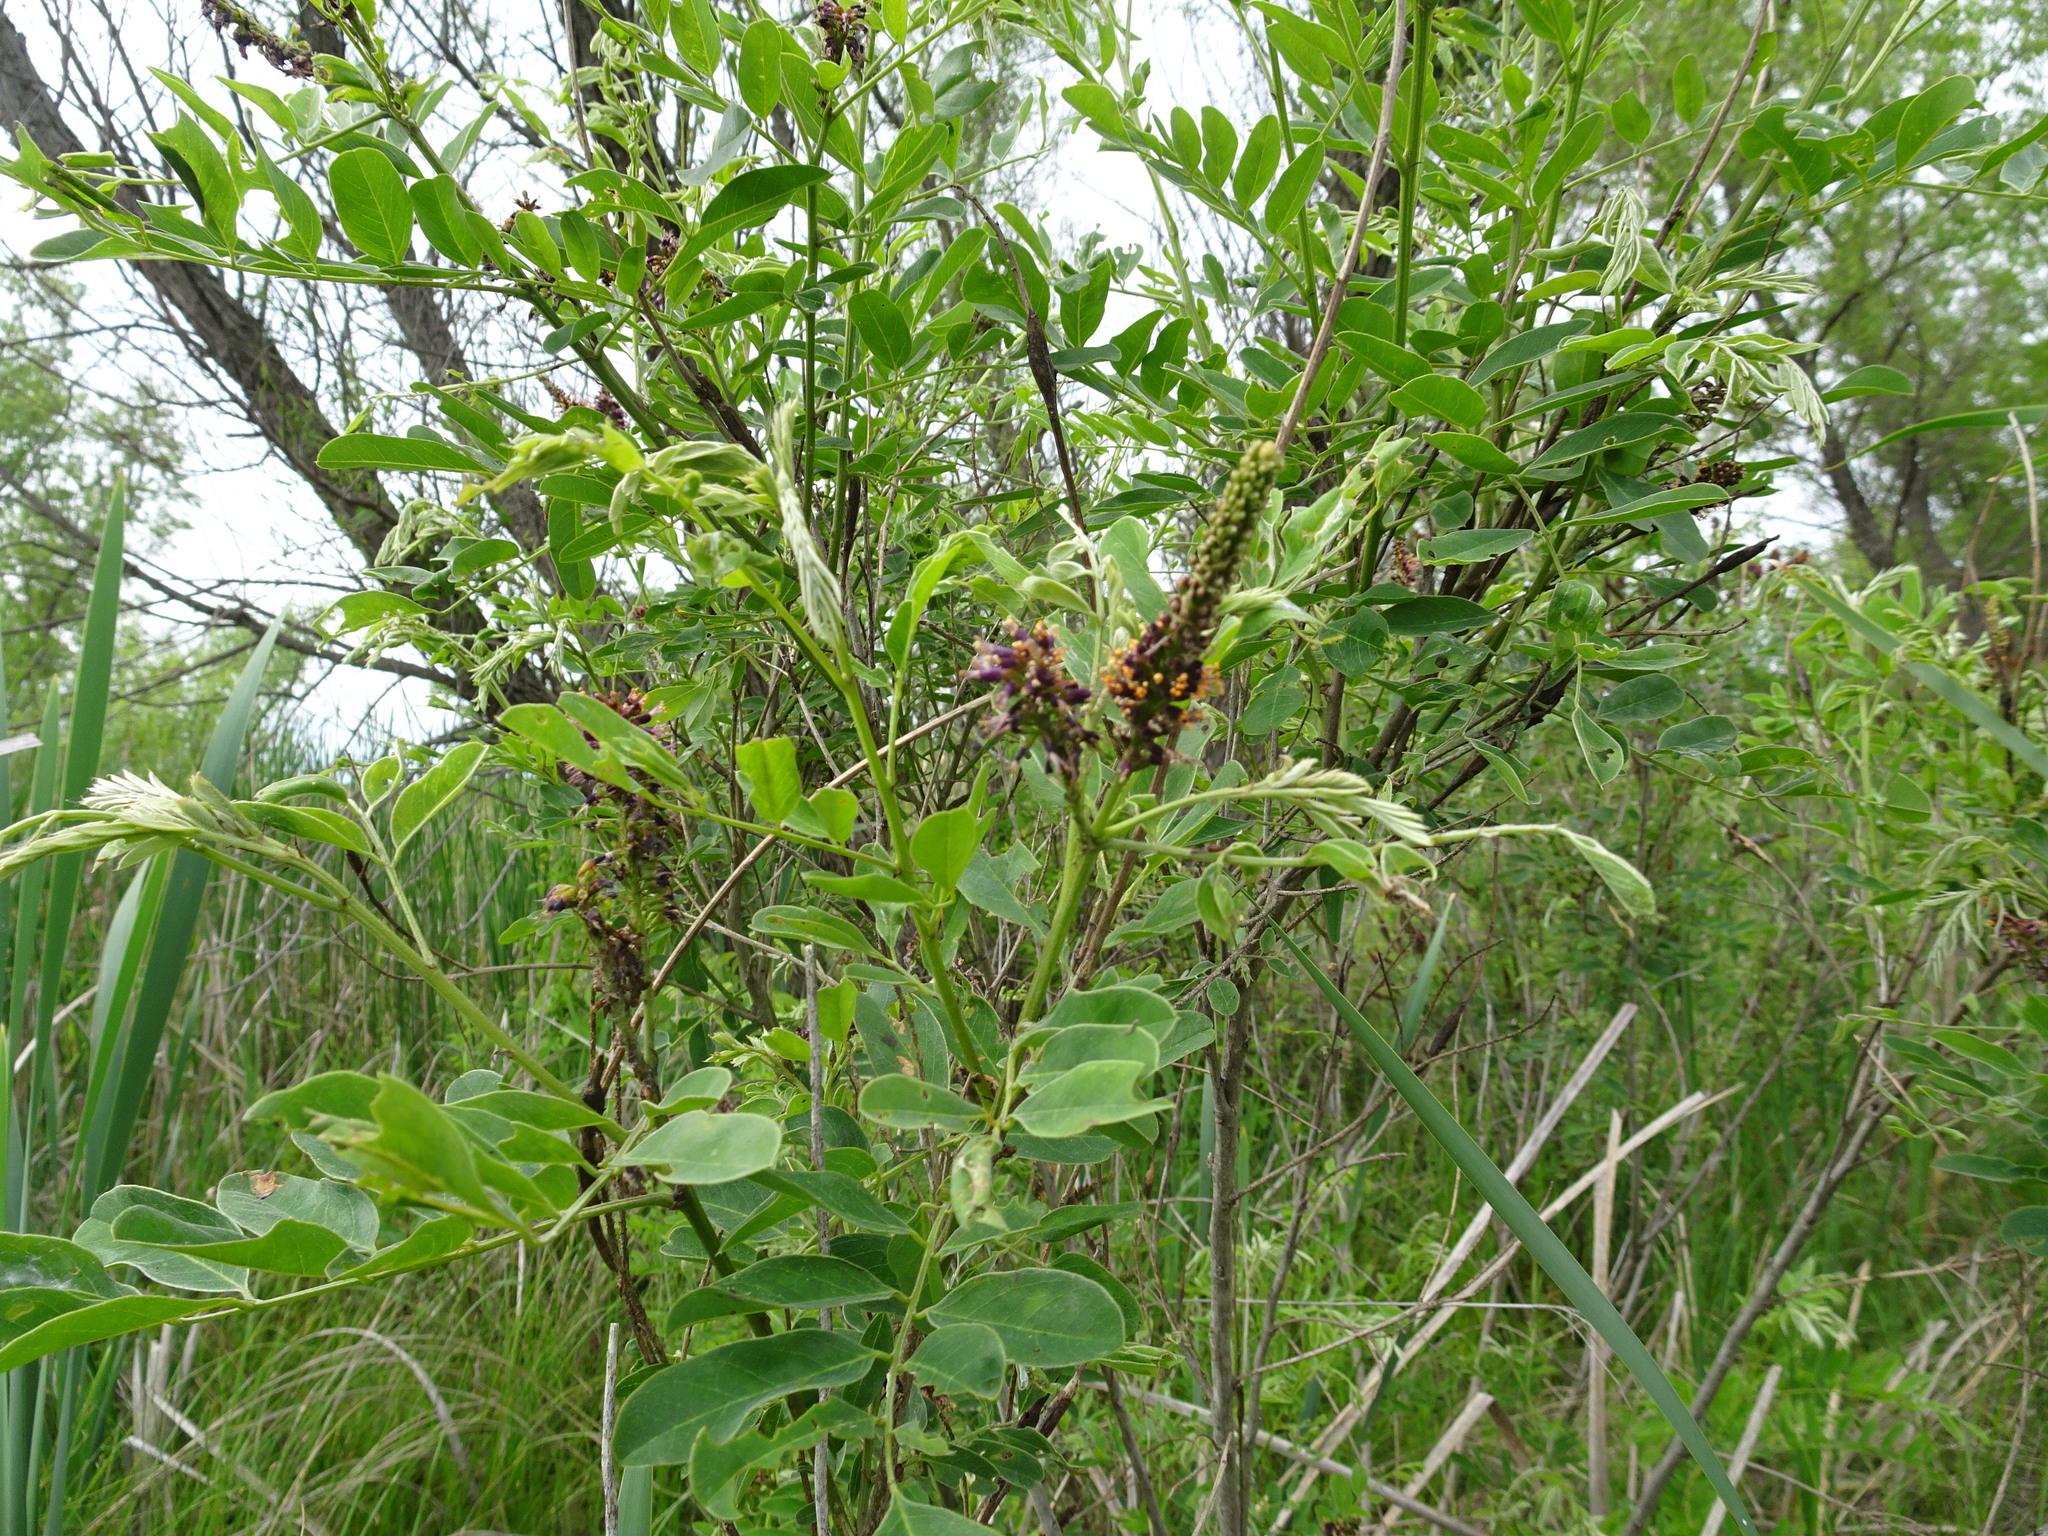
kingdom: Plantae
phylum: Tracheophyta
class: Magnoliopsida
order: Fabales
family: Fabaceae
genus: Amorpha
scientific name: Amorpha fruticosa
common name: False indigo
